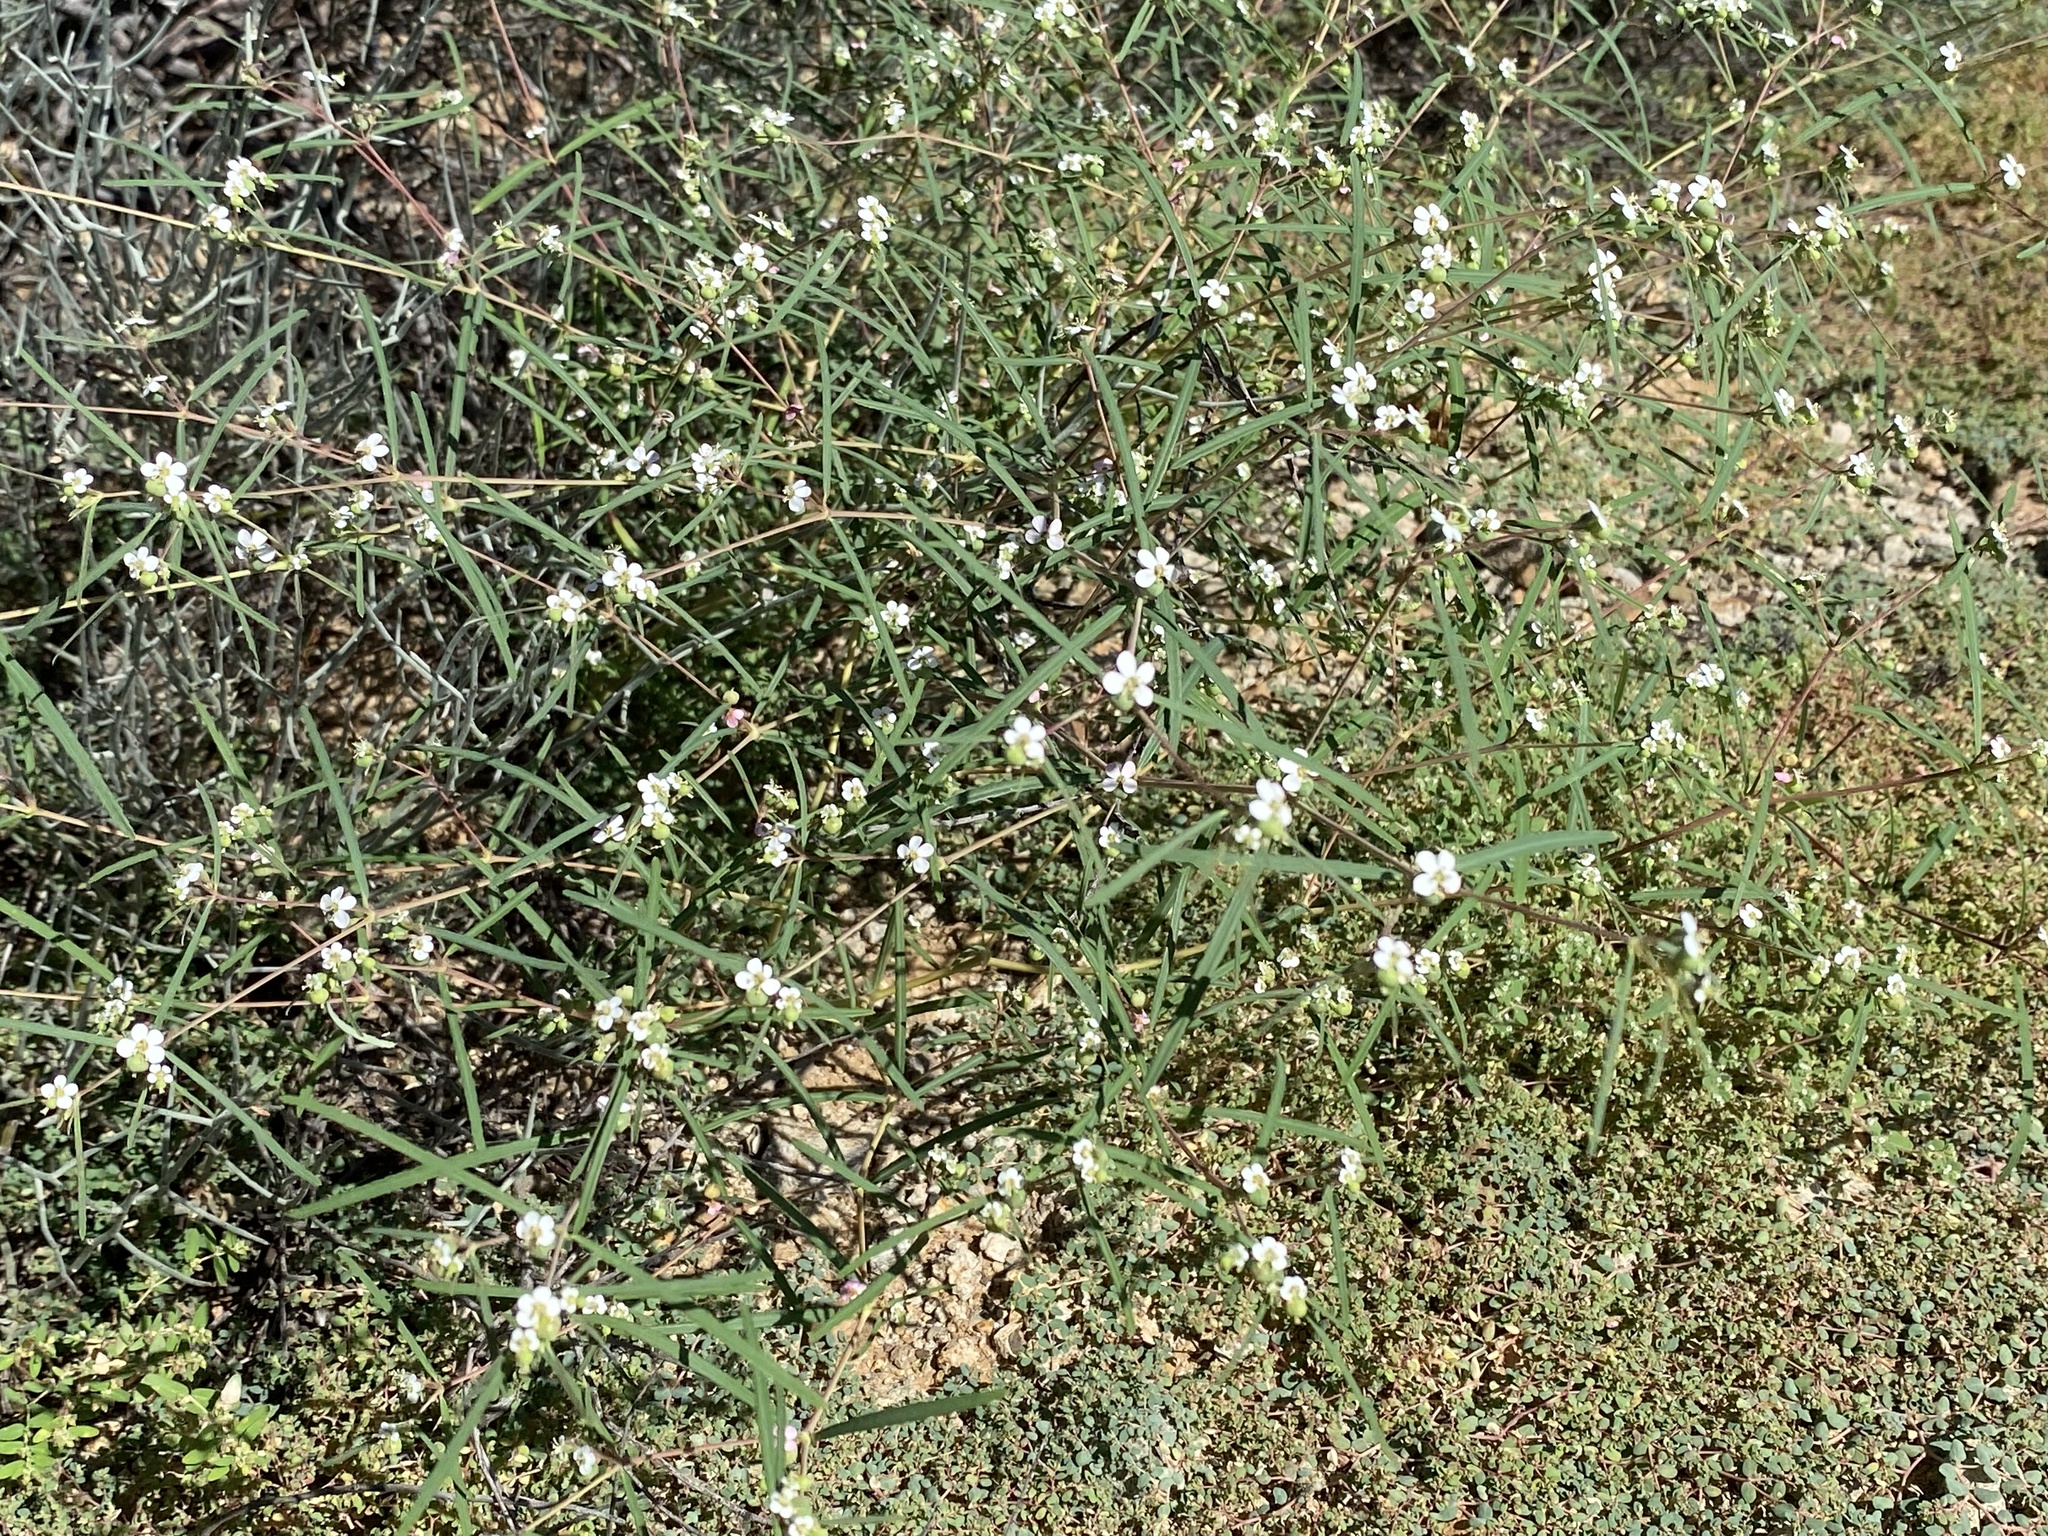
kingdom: Plantae
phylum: Tracheophyta
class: Magnoliopsida
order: Malpighiales
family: Euphorbiaceae
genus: Euphorbia
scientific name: Euphorbia florida
